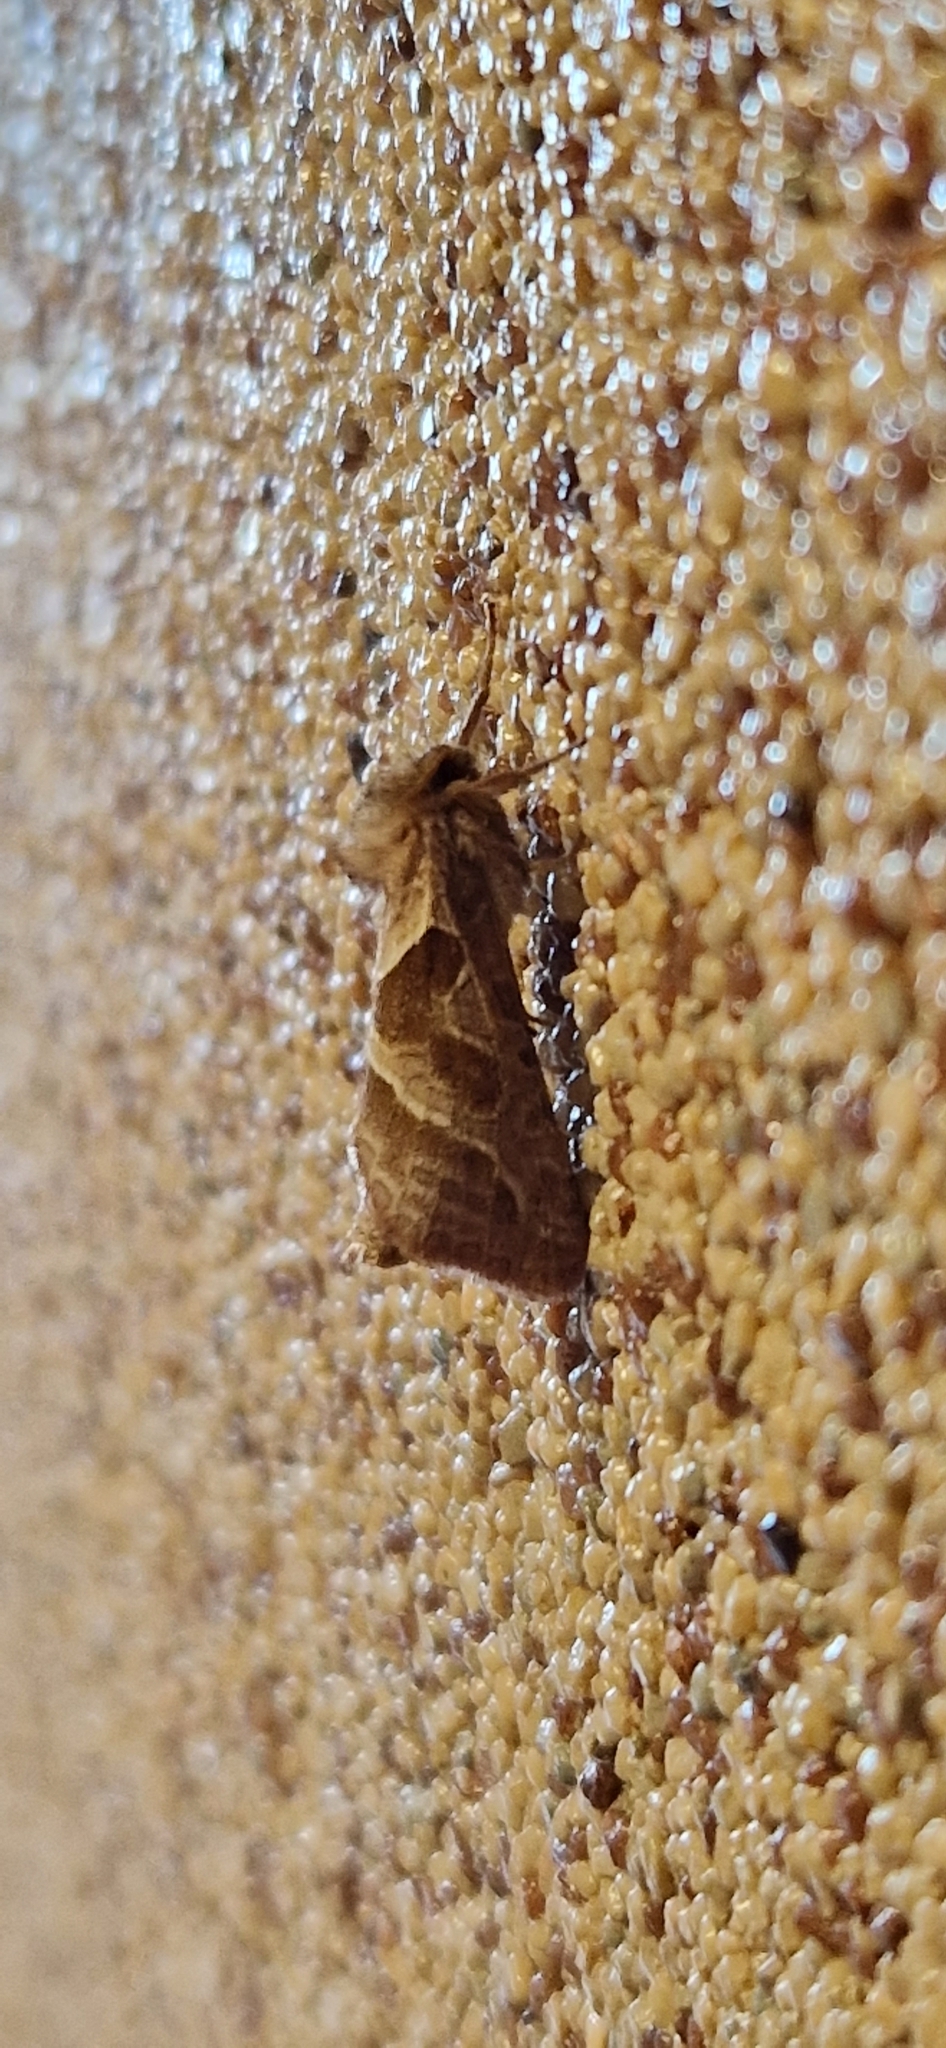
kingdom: Animalia
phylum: Arthropoda
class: Insecta
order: Lepidoptera
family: Hepialidae
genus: Triodia
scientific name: Triodia sylvina
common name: Orange swift
